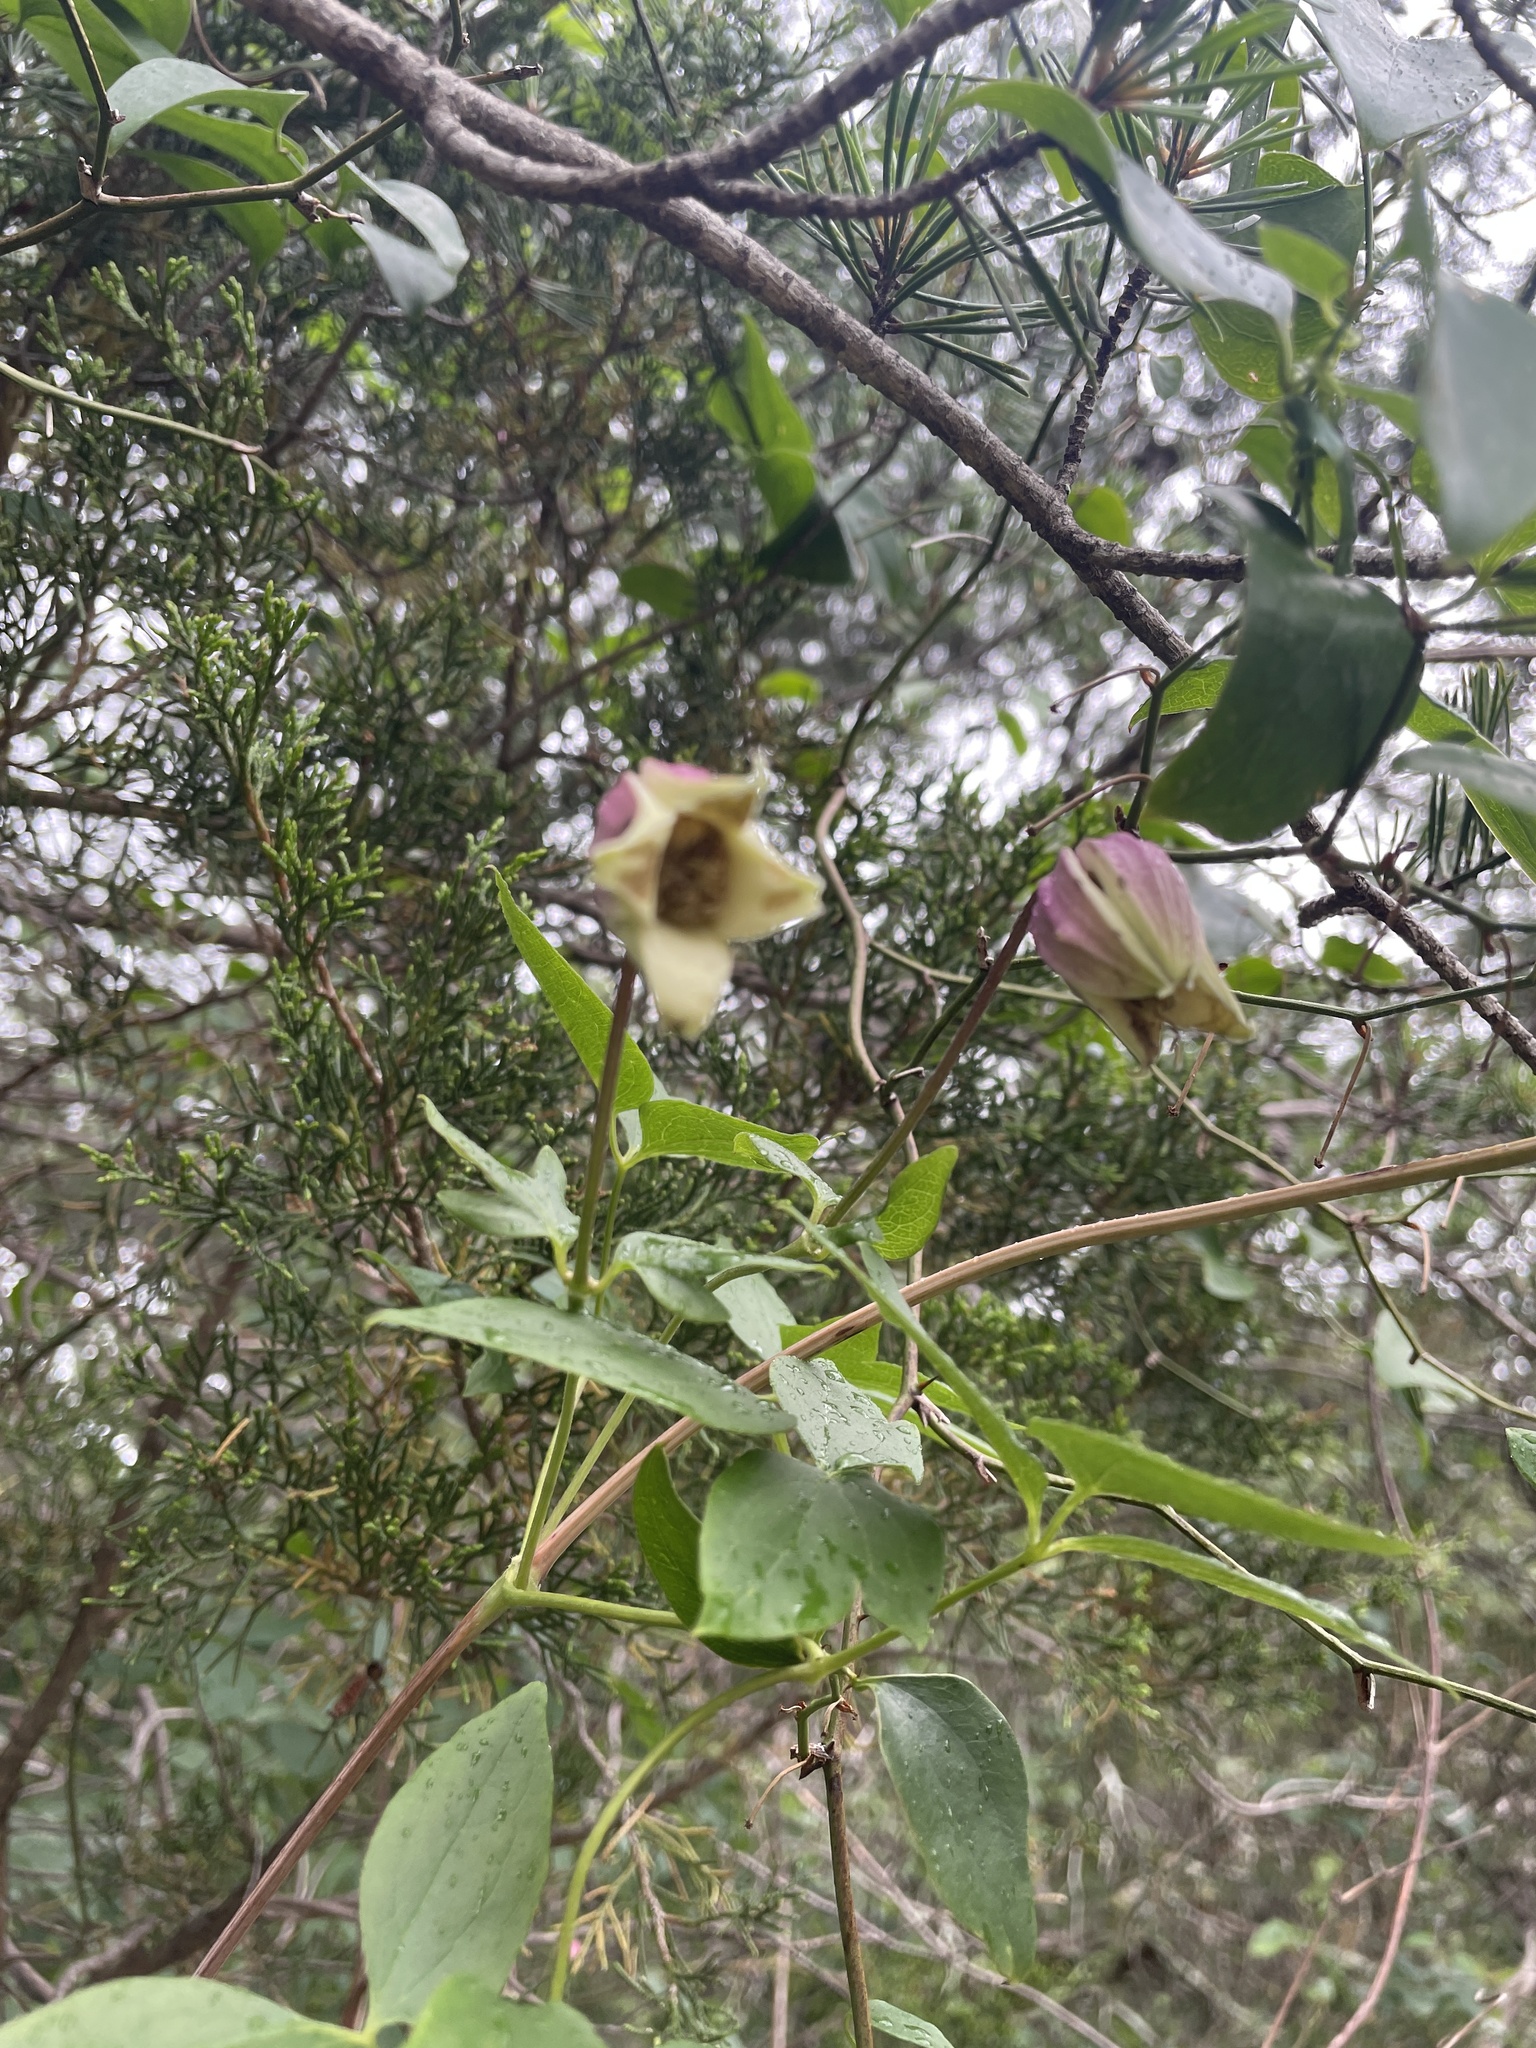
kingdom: Plantae
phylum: Tracheophyta
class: Magnoliopsida
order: Ranunculales
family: Ranunculaceae
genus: Clematis
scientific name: Clematis viorna
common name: Leather-flower
